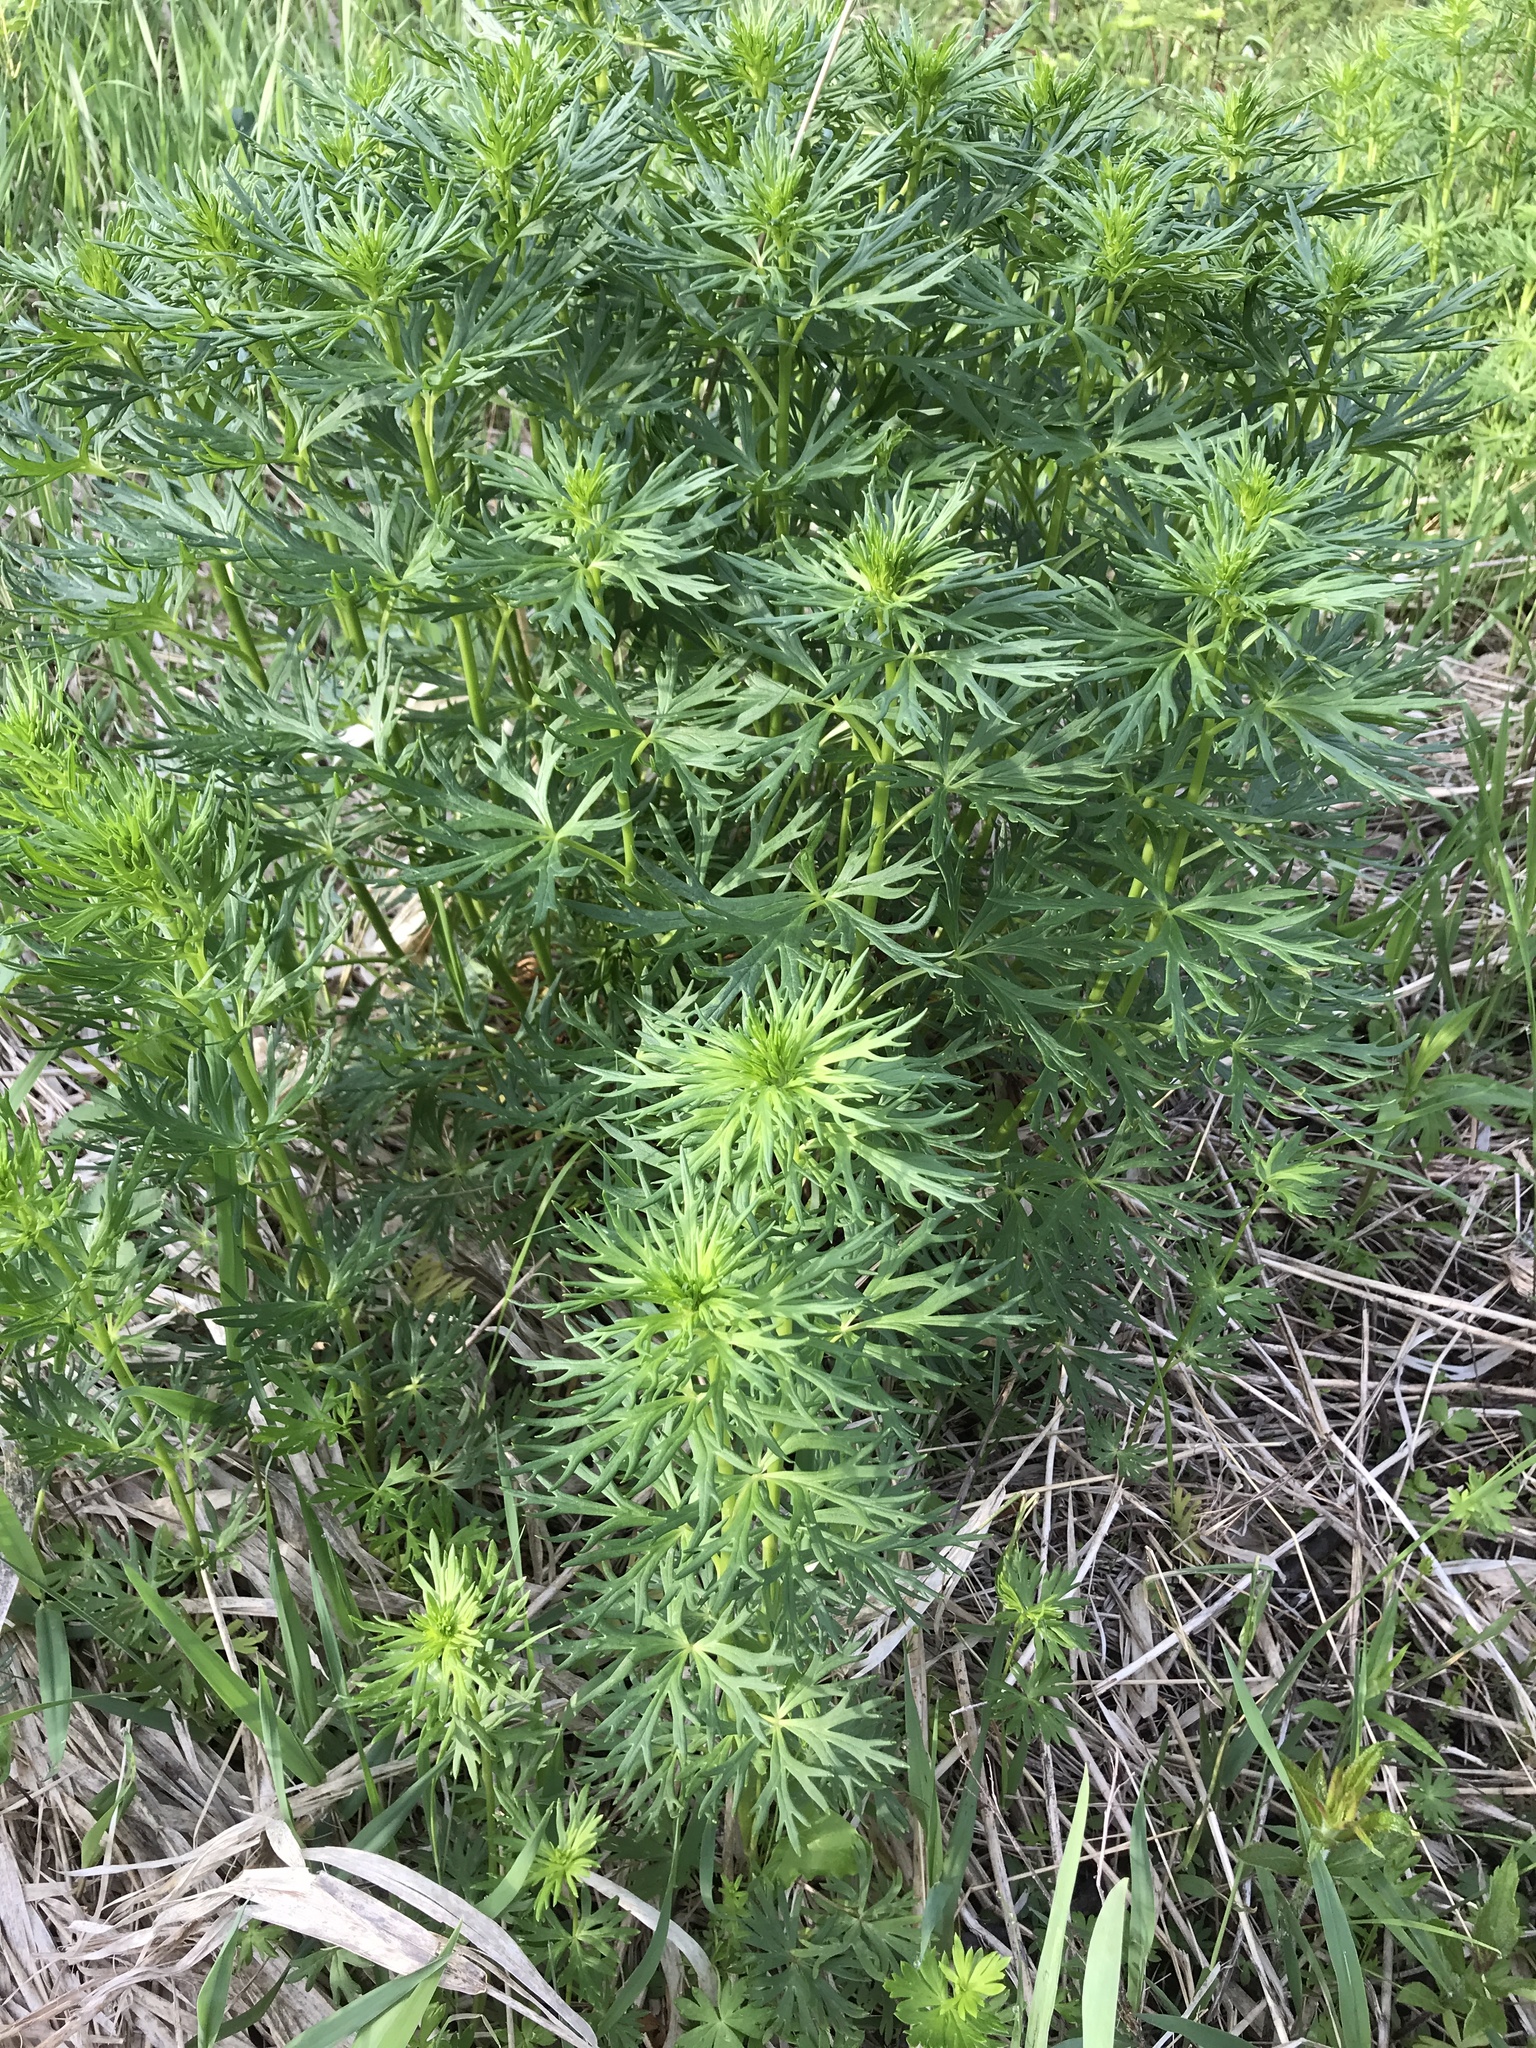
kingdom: Plantae
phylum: Tracheophyta
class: Magnoliopsida
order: Ranunculales
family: Ranunculaceae
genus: Aconitum
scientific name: Aconitum napellus
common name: Garden monkshood
